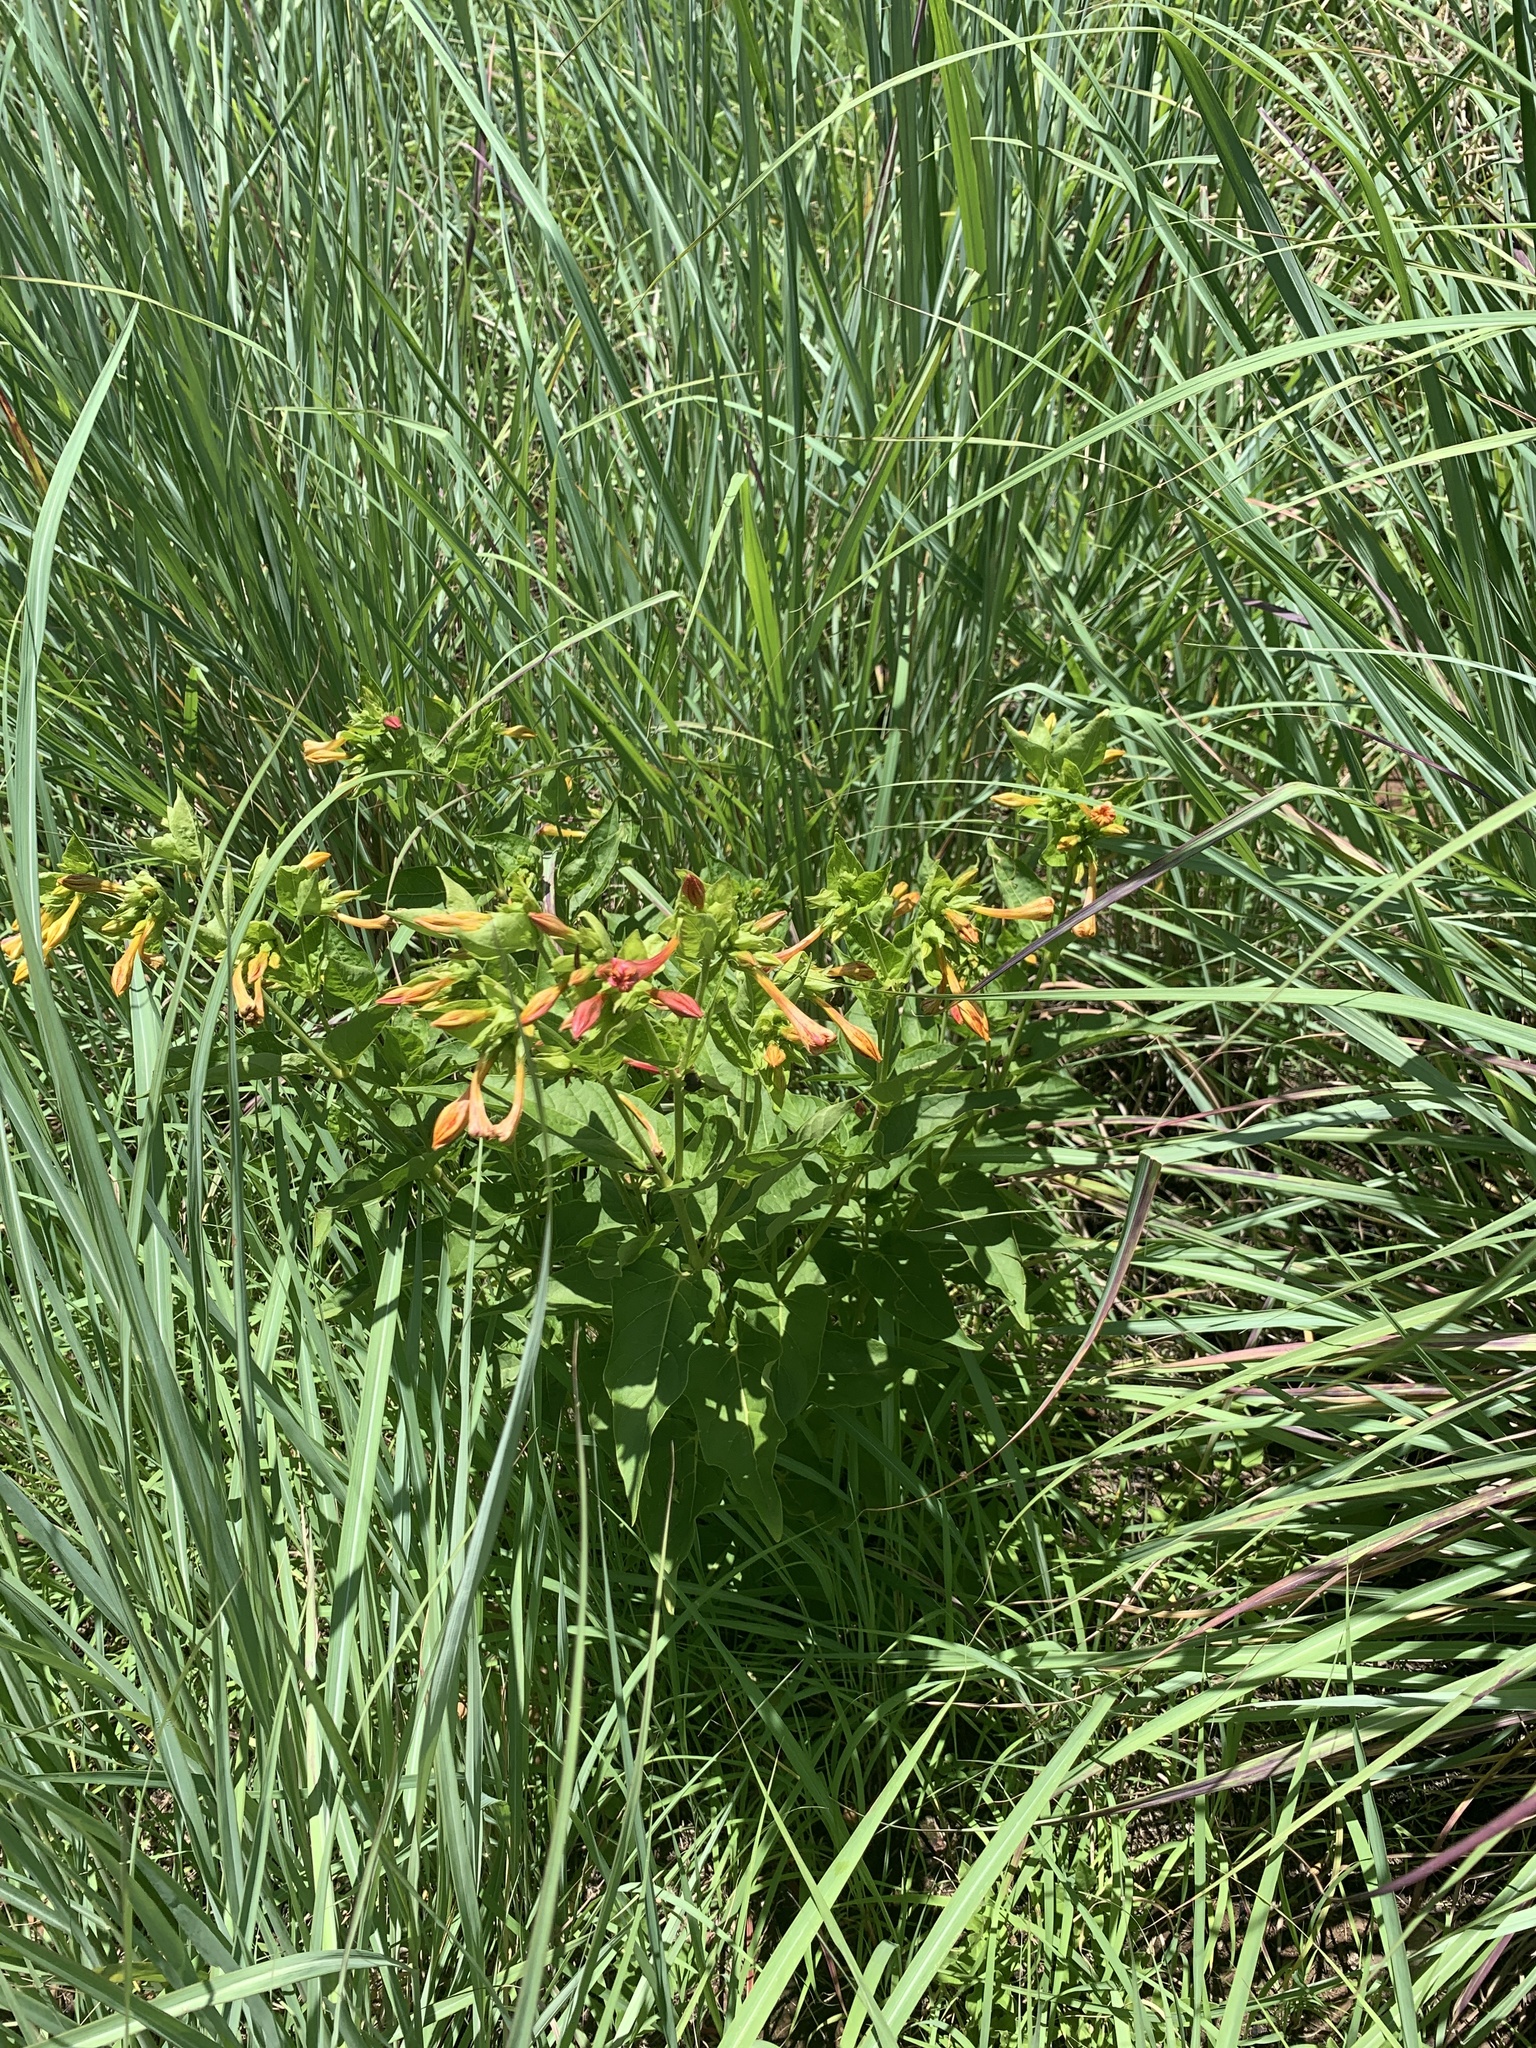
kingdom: Plantae
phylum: Tracheophyta
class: Magnoliopsida
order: Caryophyllales
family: Nyctaginaceae
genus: Mirabilis
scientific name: Mirabilis jalapa
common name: Marvel-of-peru
